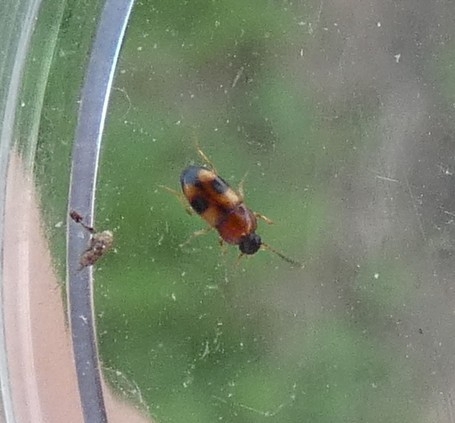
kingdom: Animalia
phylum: Arthropoda
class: Insecta
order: Coleoptera
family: Tenebrionidae
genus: Poecilocrypticus
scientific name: Poecilocrypticus formicophilus
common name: Darkling beetle
